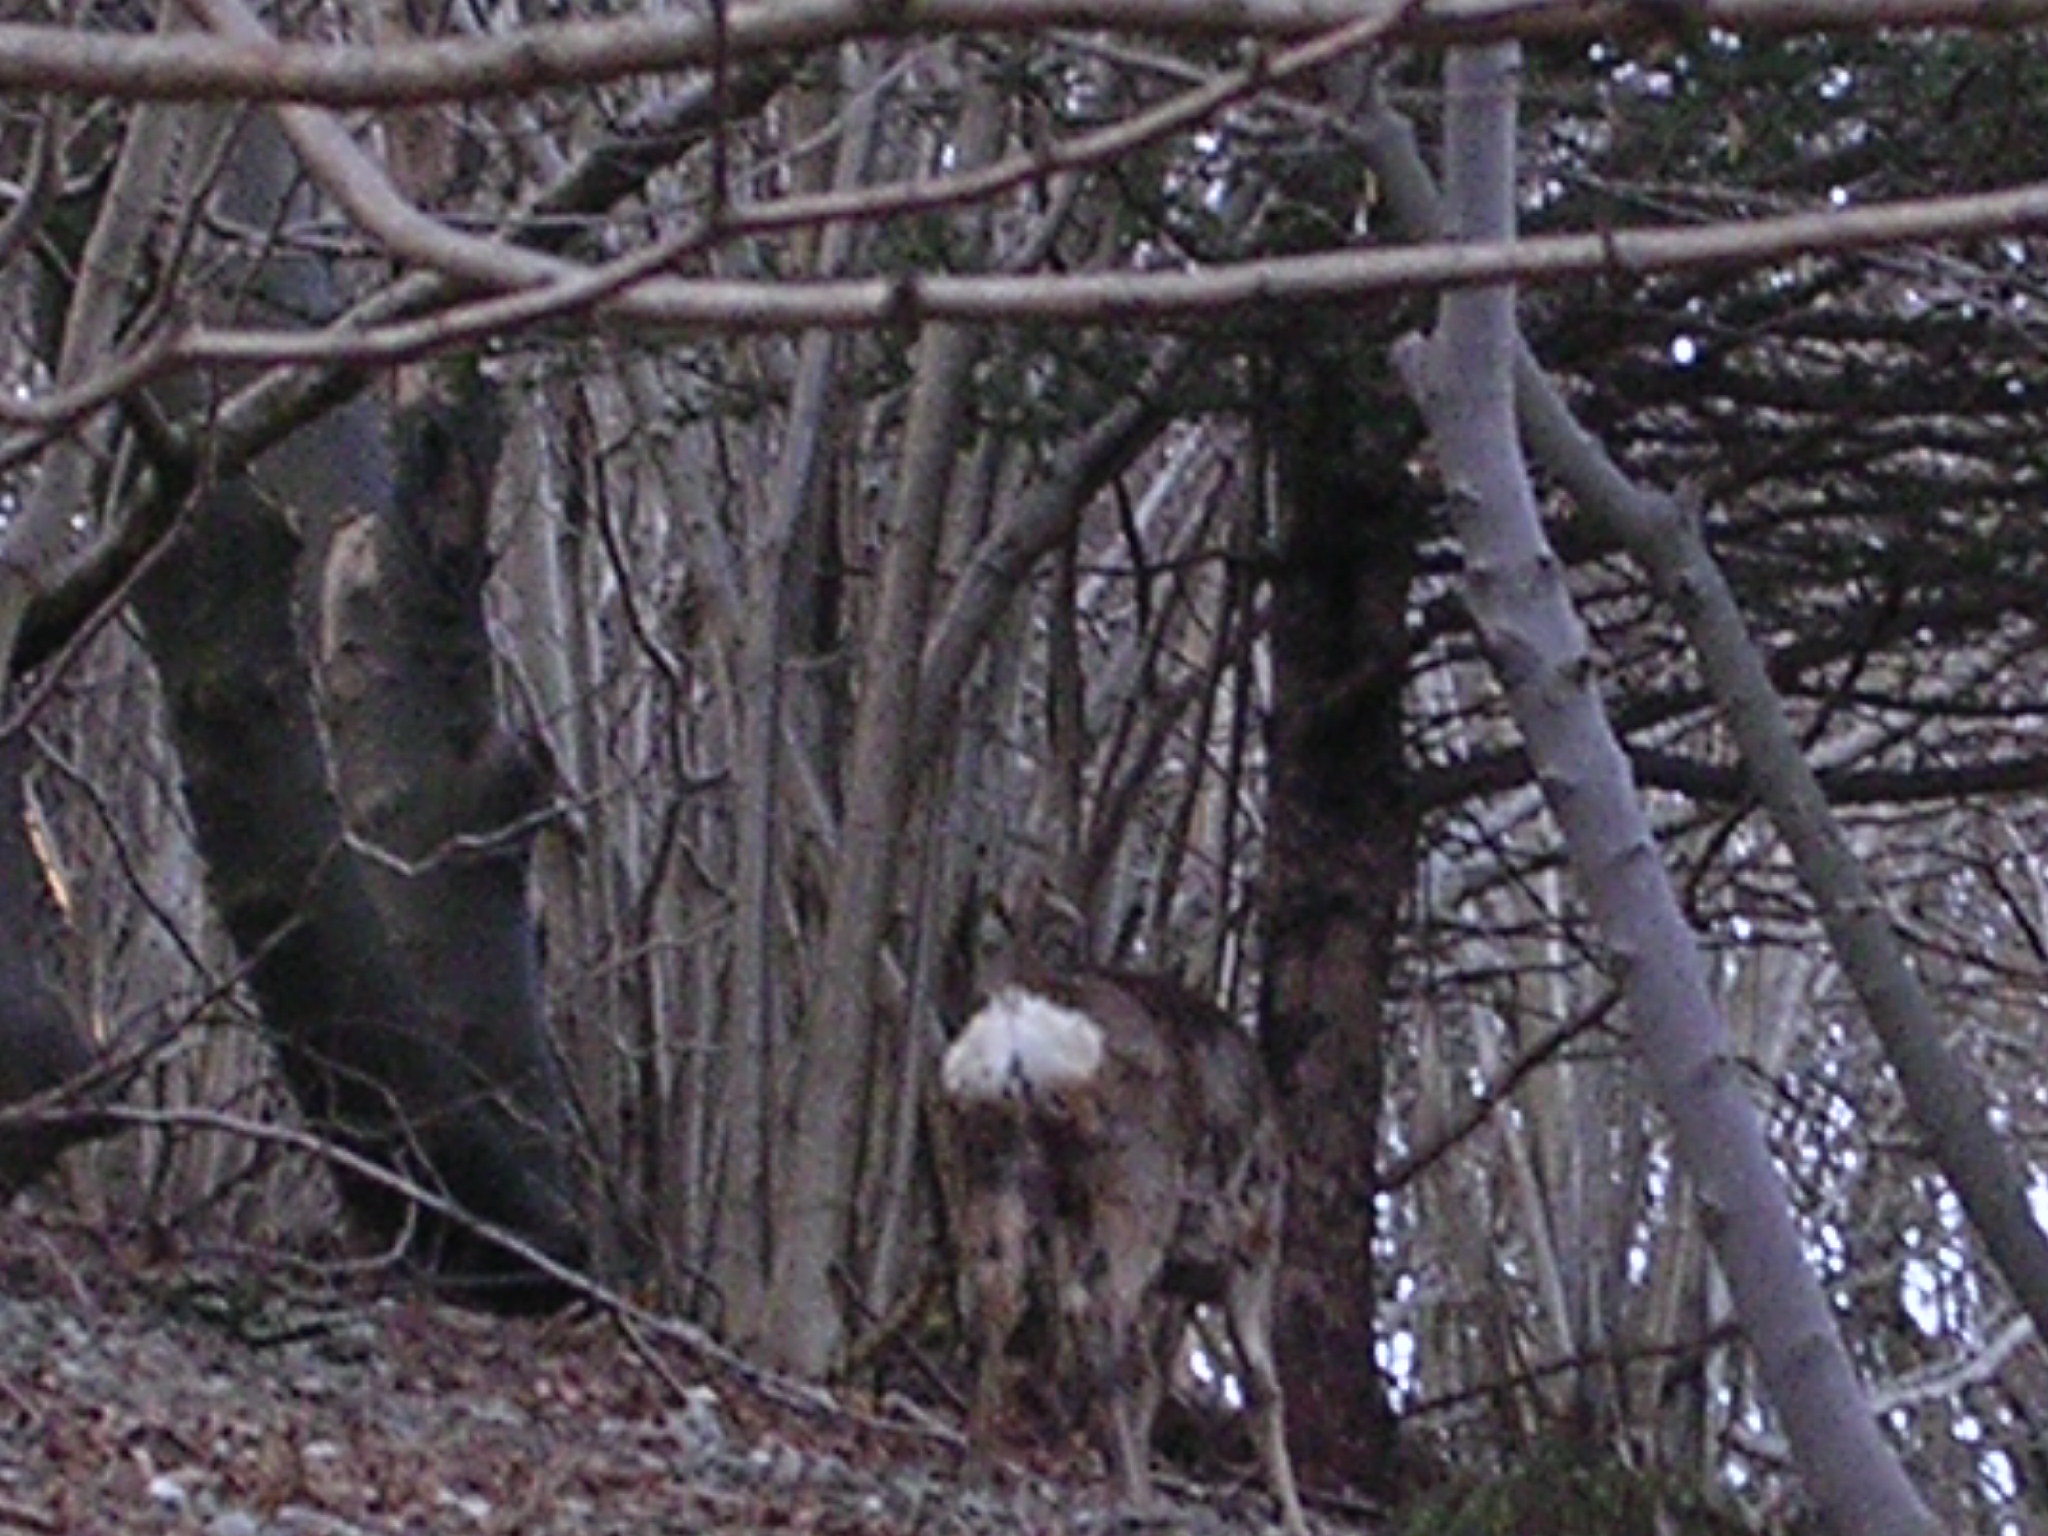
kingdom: Animalia
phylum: Chordata
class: Mammalia
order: Artiodactyla
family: Cervidae
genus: Capreolus
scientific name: Capreolus capreolus
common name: Western roe deer
